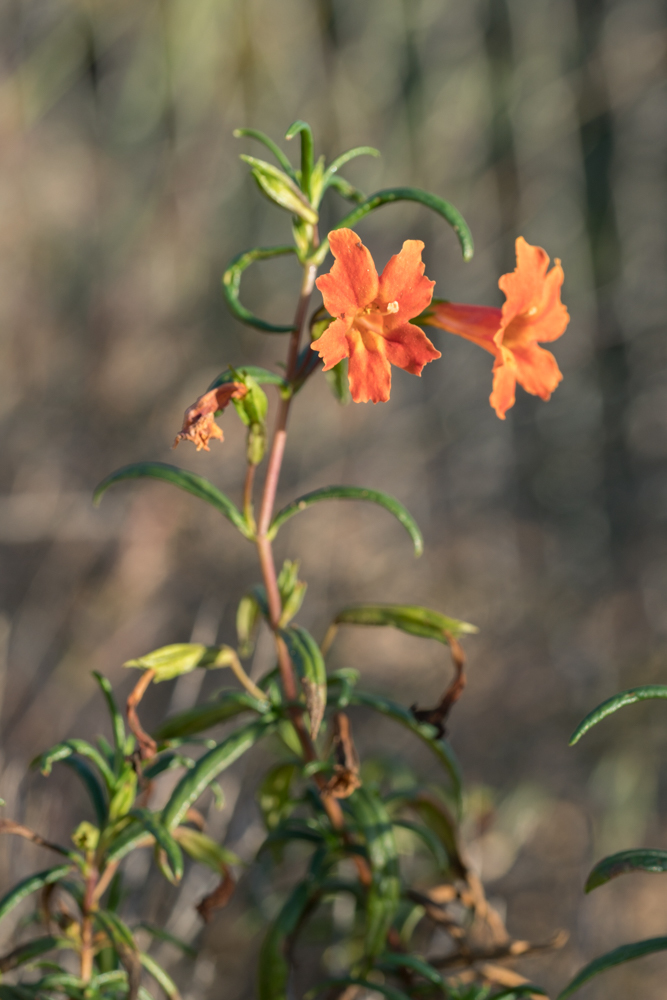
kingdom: Plantae
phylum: Tracheophyta
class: Magnoliopsida
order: Lamiales
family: Phrymaceae
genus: Diplacus
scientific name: Diplacus australis
